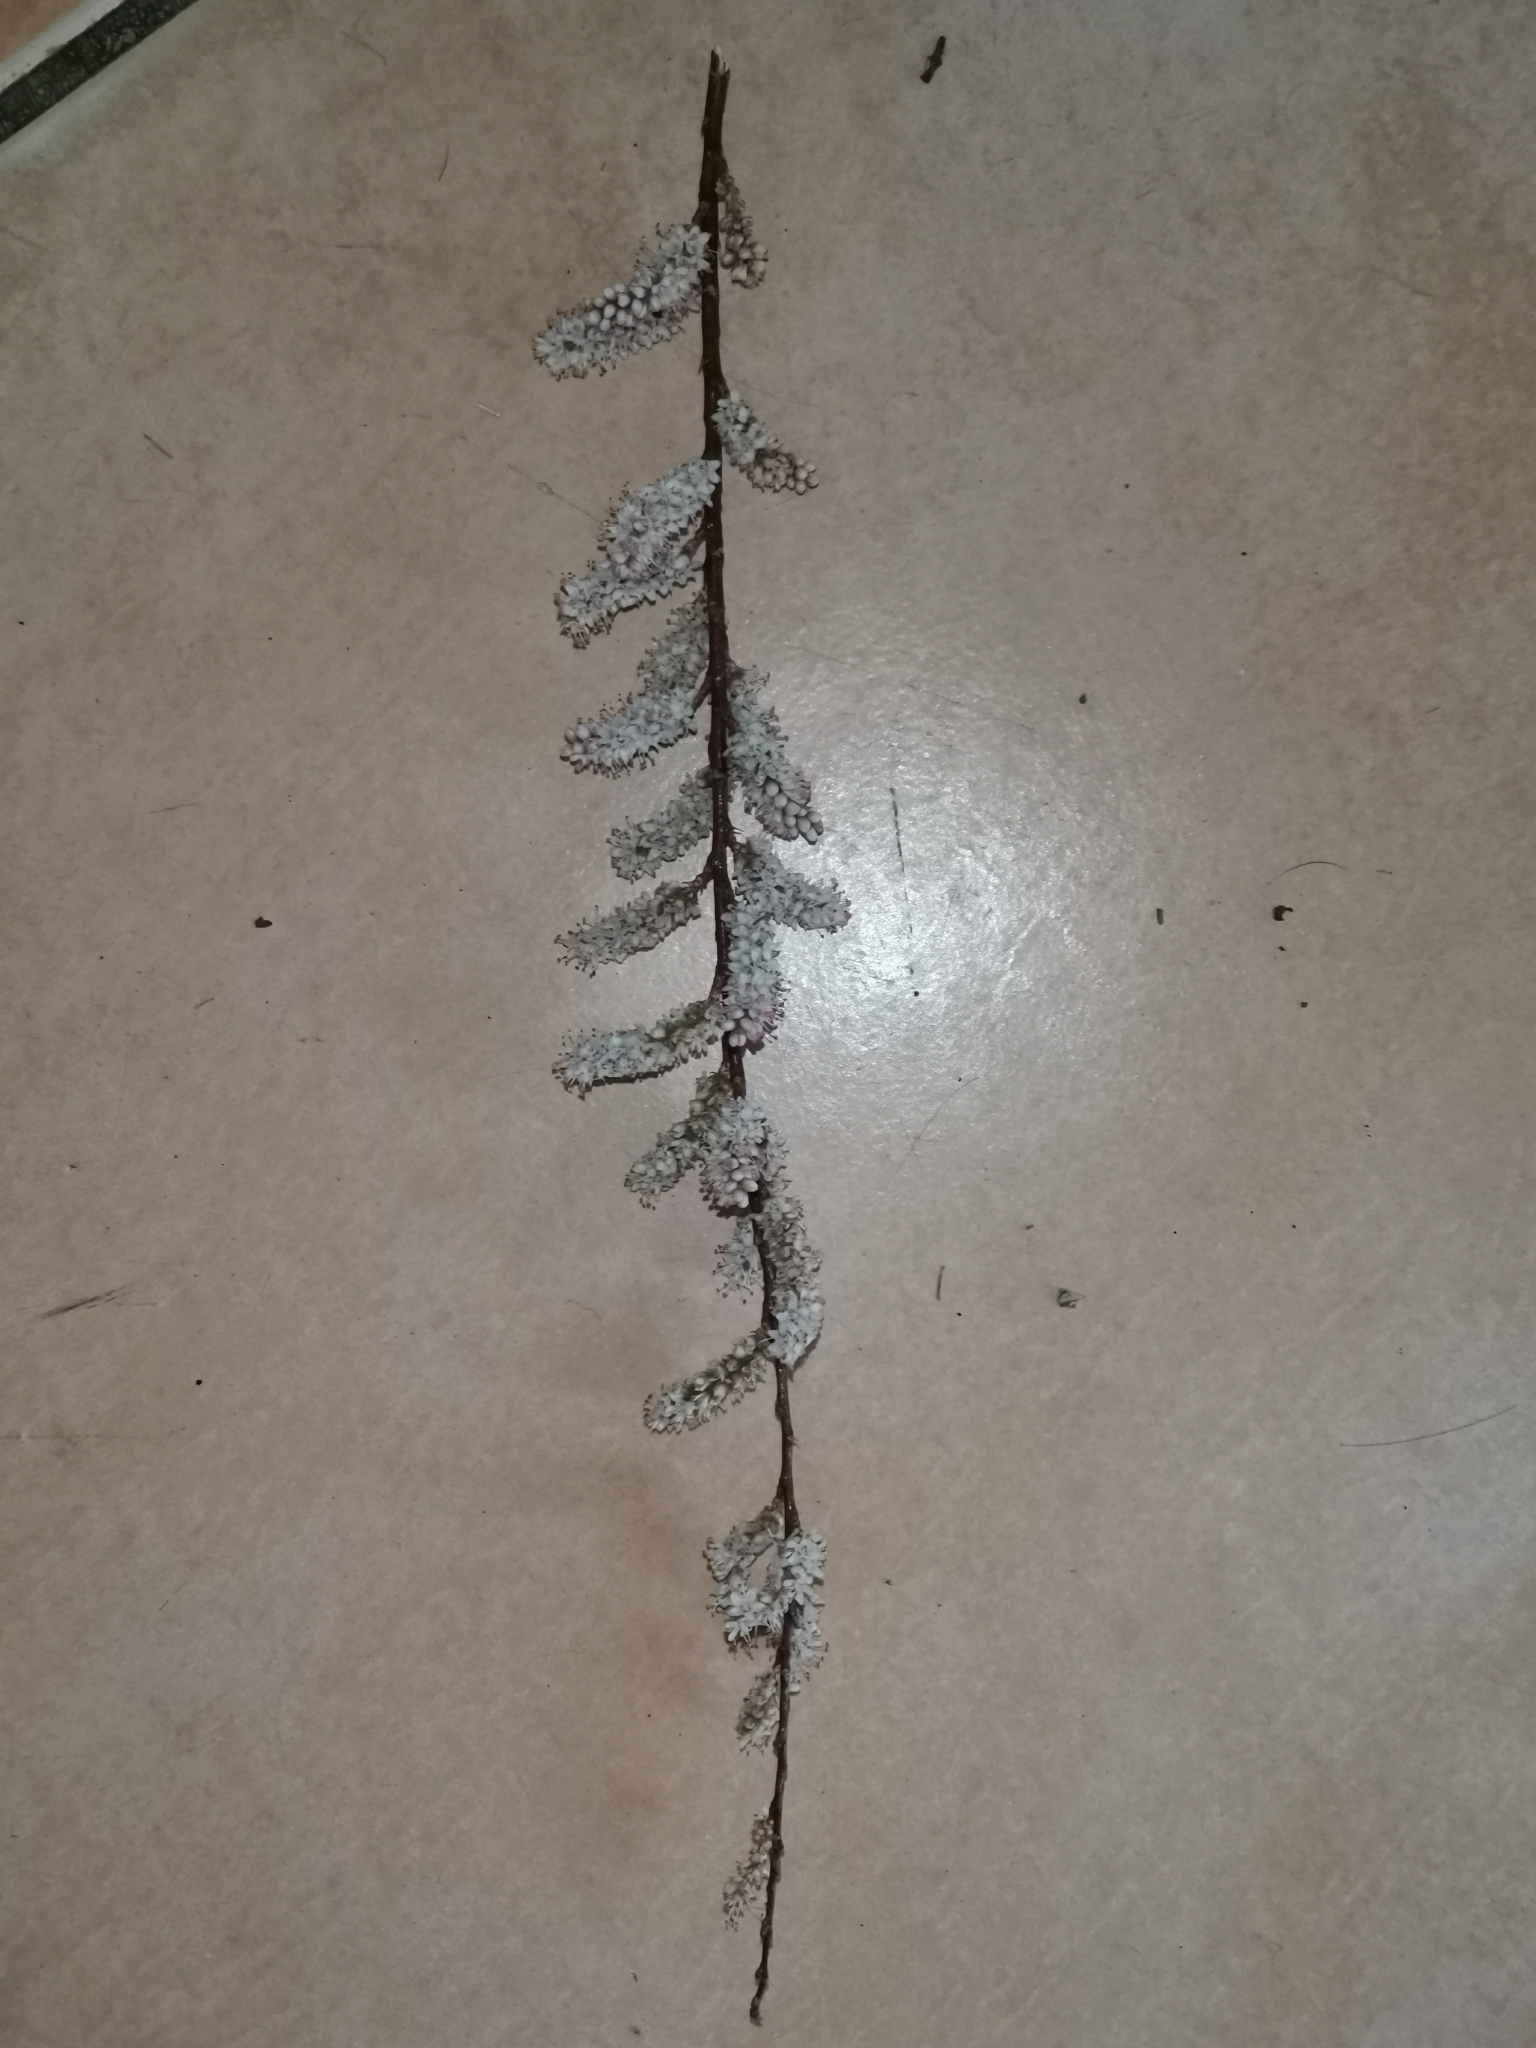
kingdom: Plantae
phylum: Tracheophyta
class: Magnoliopsida
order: Caryophyllales
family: Tamaricaceae
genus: Tamarix
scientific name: Tamarix africana
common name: African tamarisk
